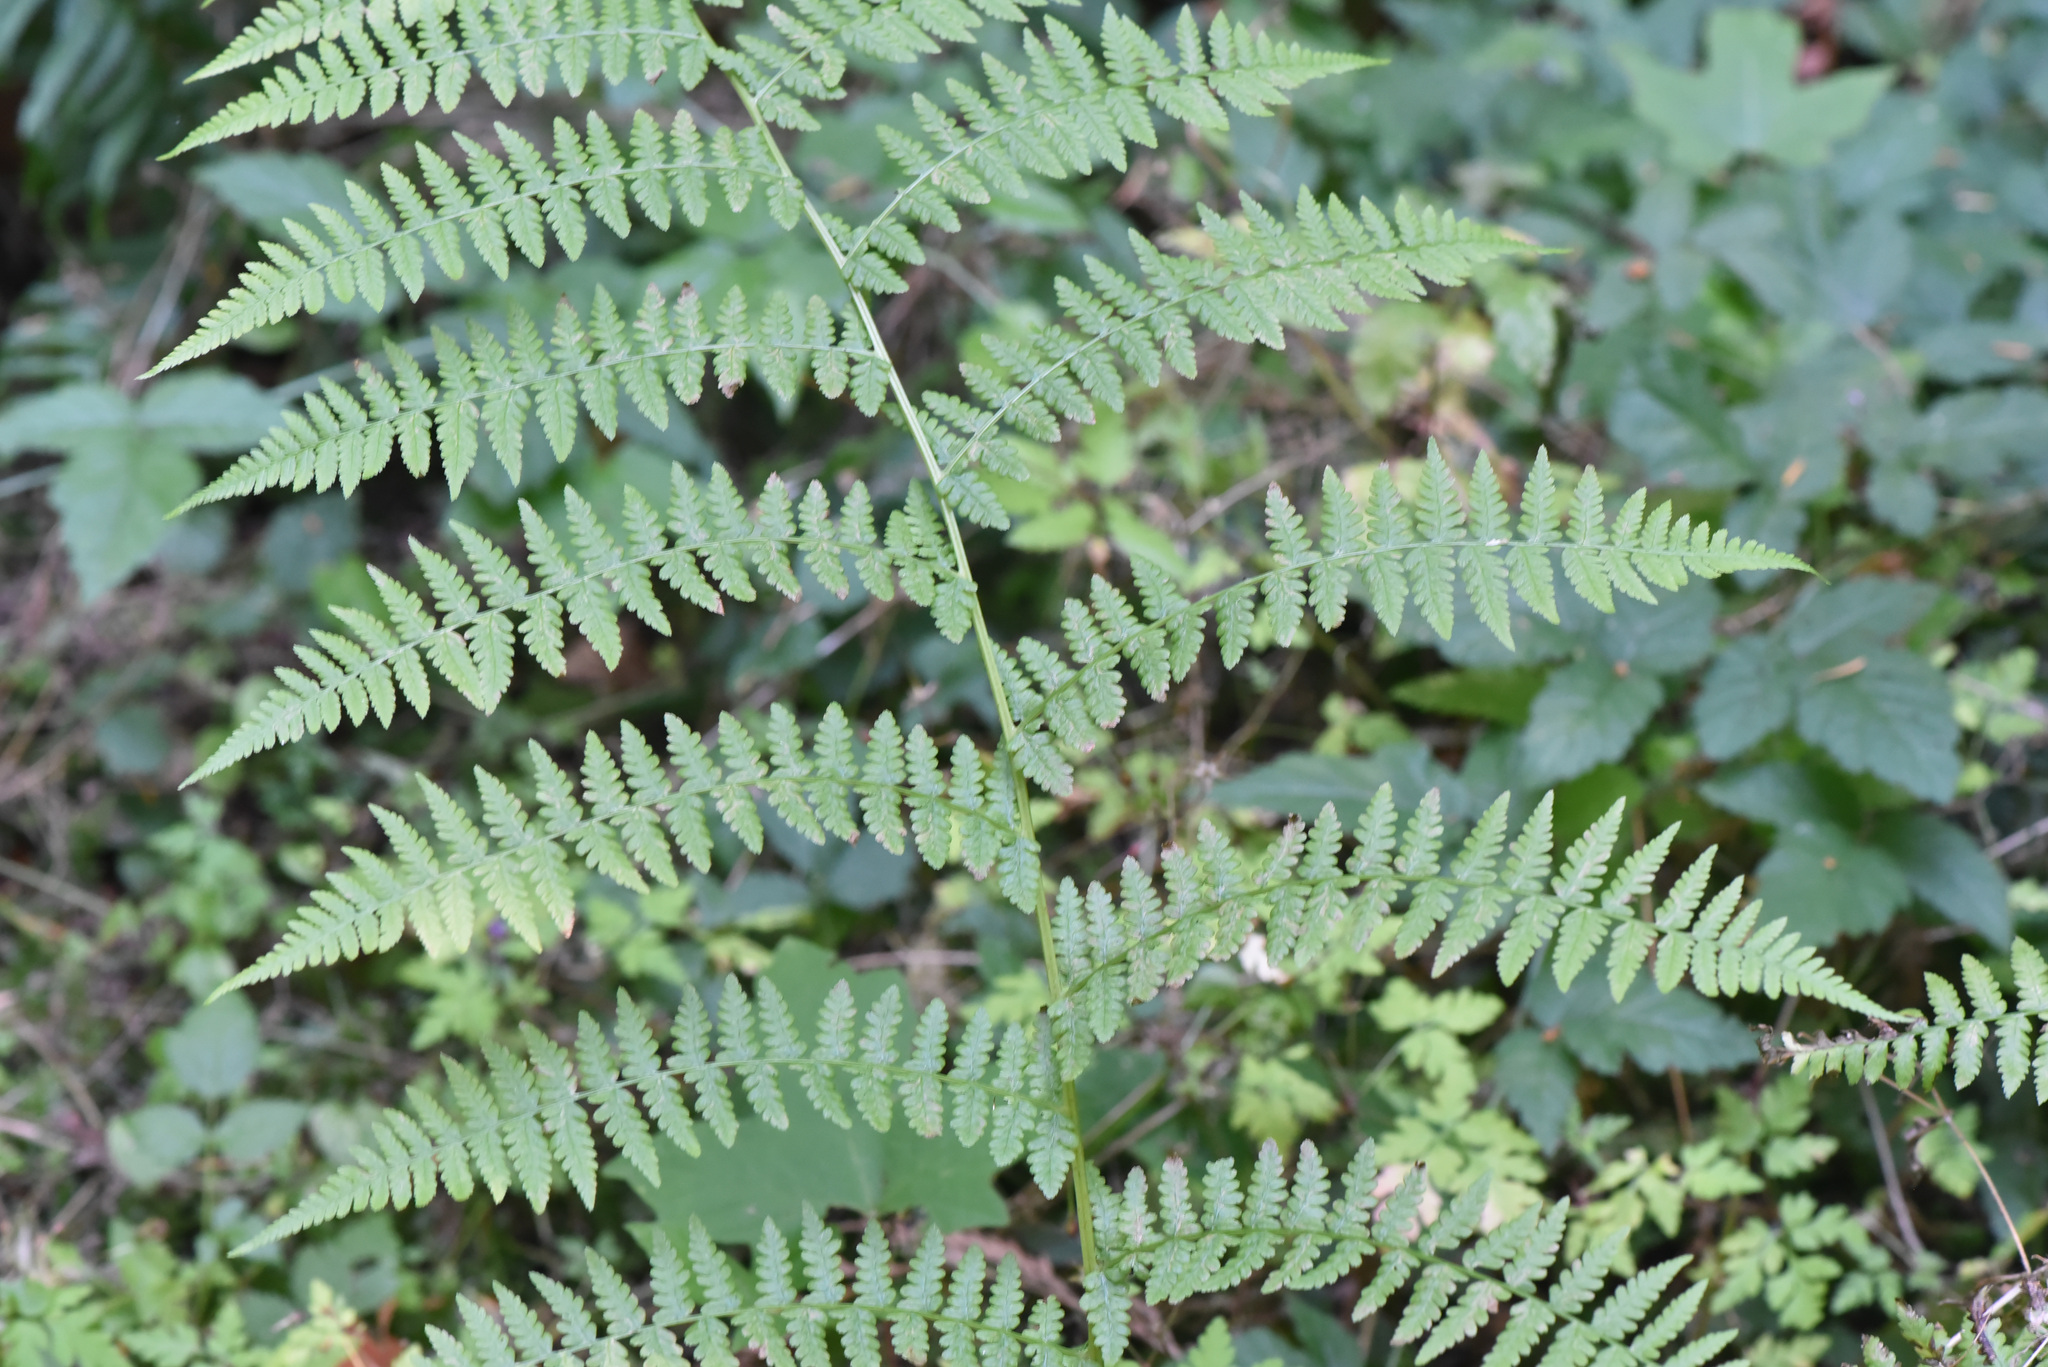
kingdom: Plantae
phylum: Tracheophyta
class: Polypodiopsida
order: Polypodiales
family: Athyriaceae
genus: Athyrium
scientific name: Athyrium filix-femina
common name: Lady fern
